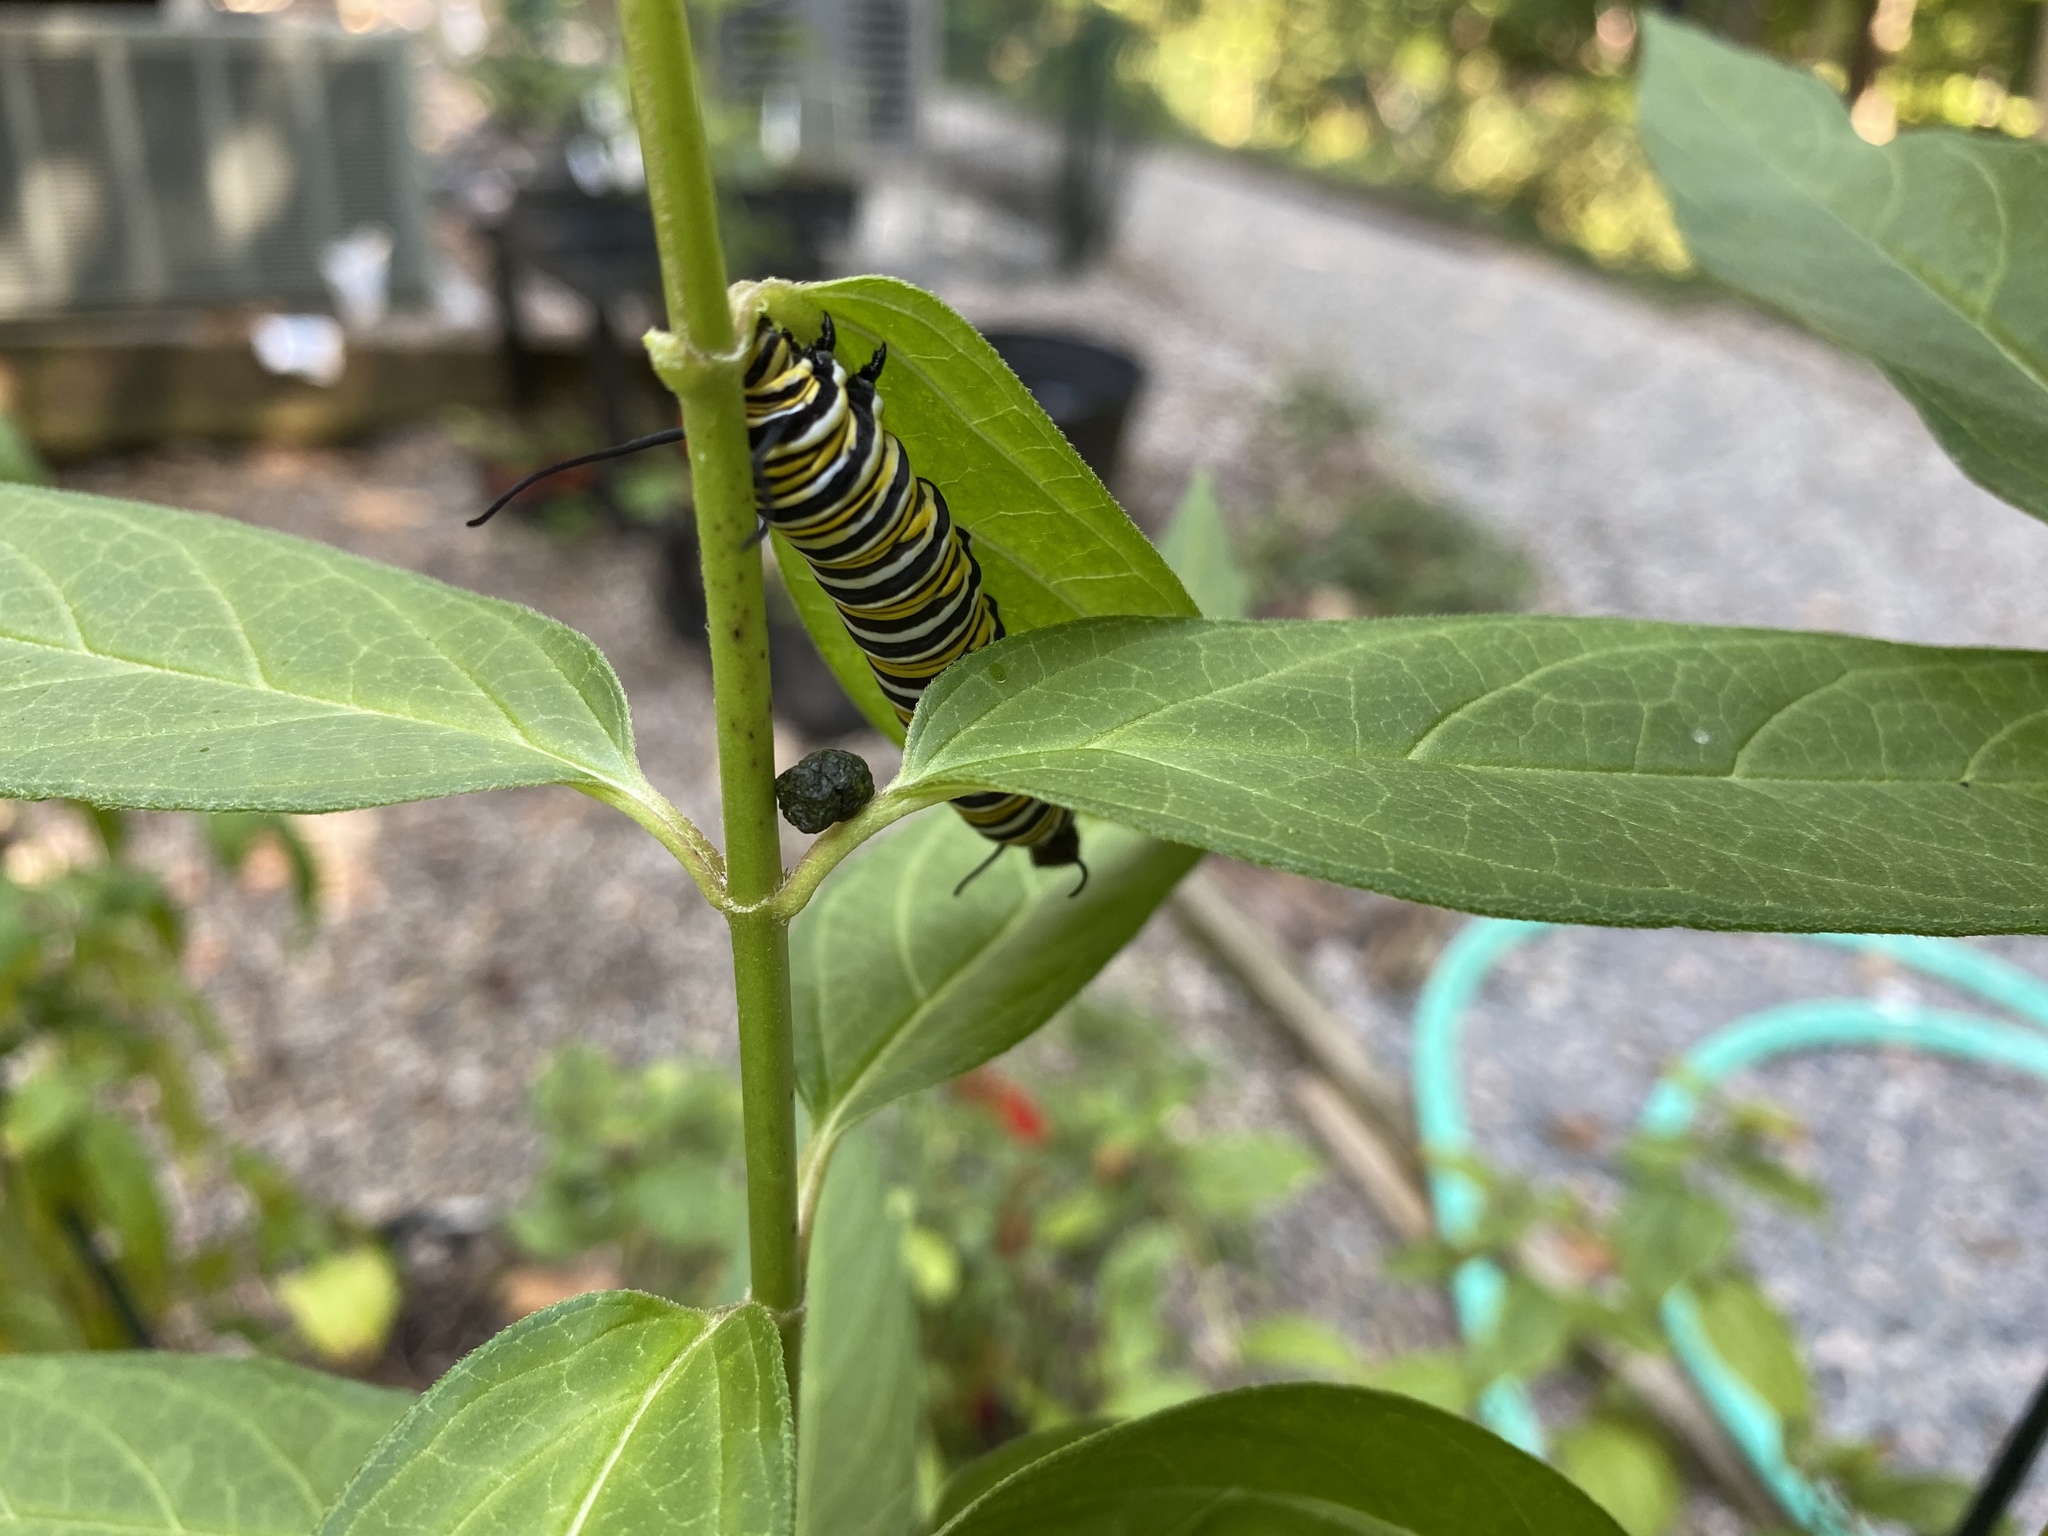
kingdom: Animalia
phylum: Arthropoda
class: Insecta
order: Lepidoptera
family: Nymphalidae
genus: Danaus
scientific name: Danaus plexippus
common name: Monarch
